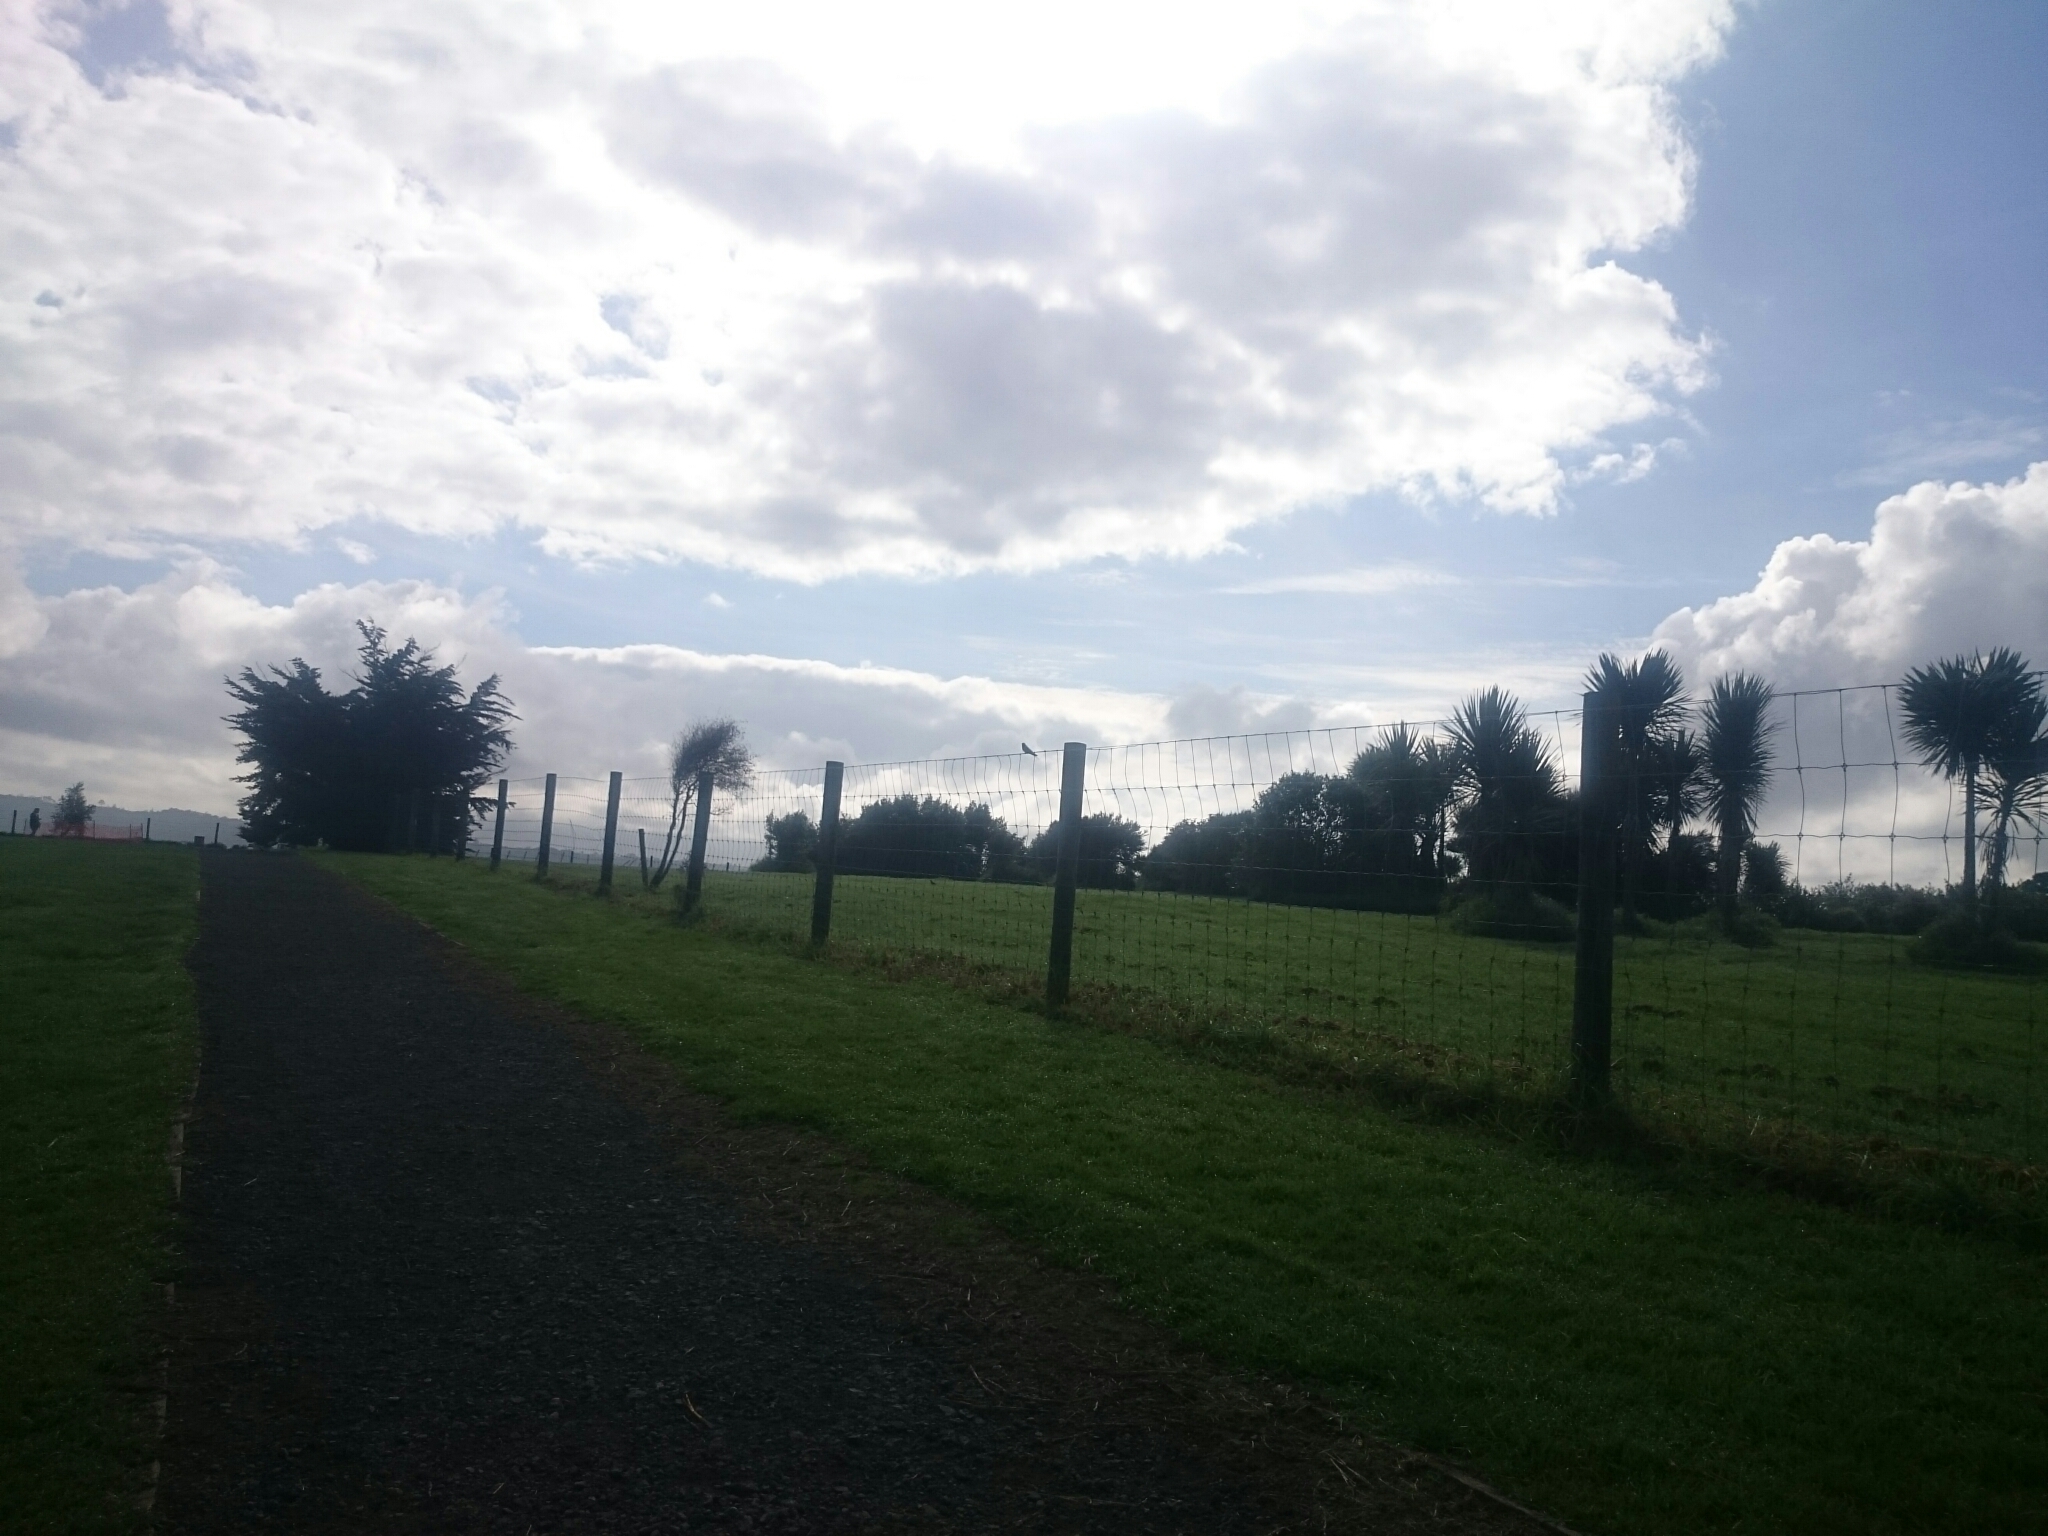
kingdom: Animalia
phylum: Chordata
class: Aves
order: Passeriformes
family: Hirundinidae
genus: Hirundo
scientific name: Hirundo neoxena
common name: Welcome swallow
